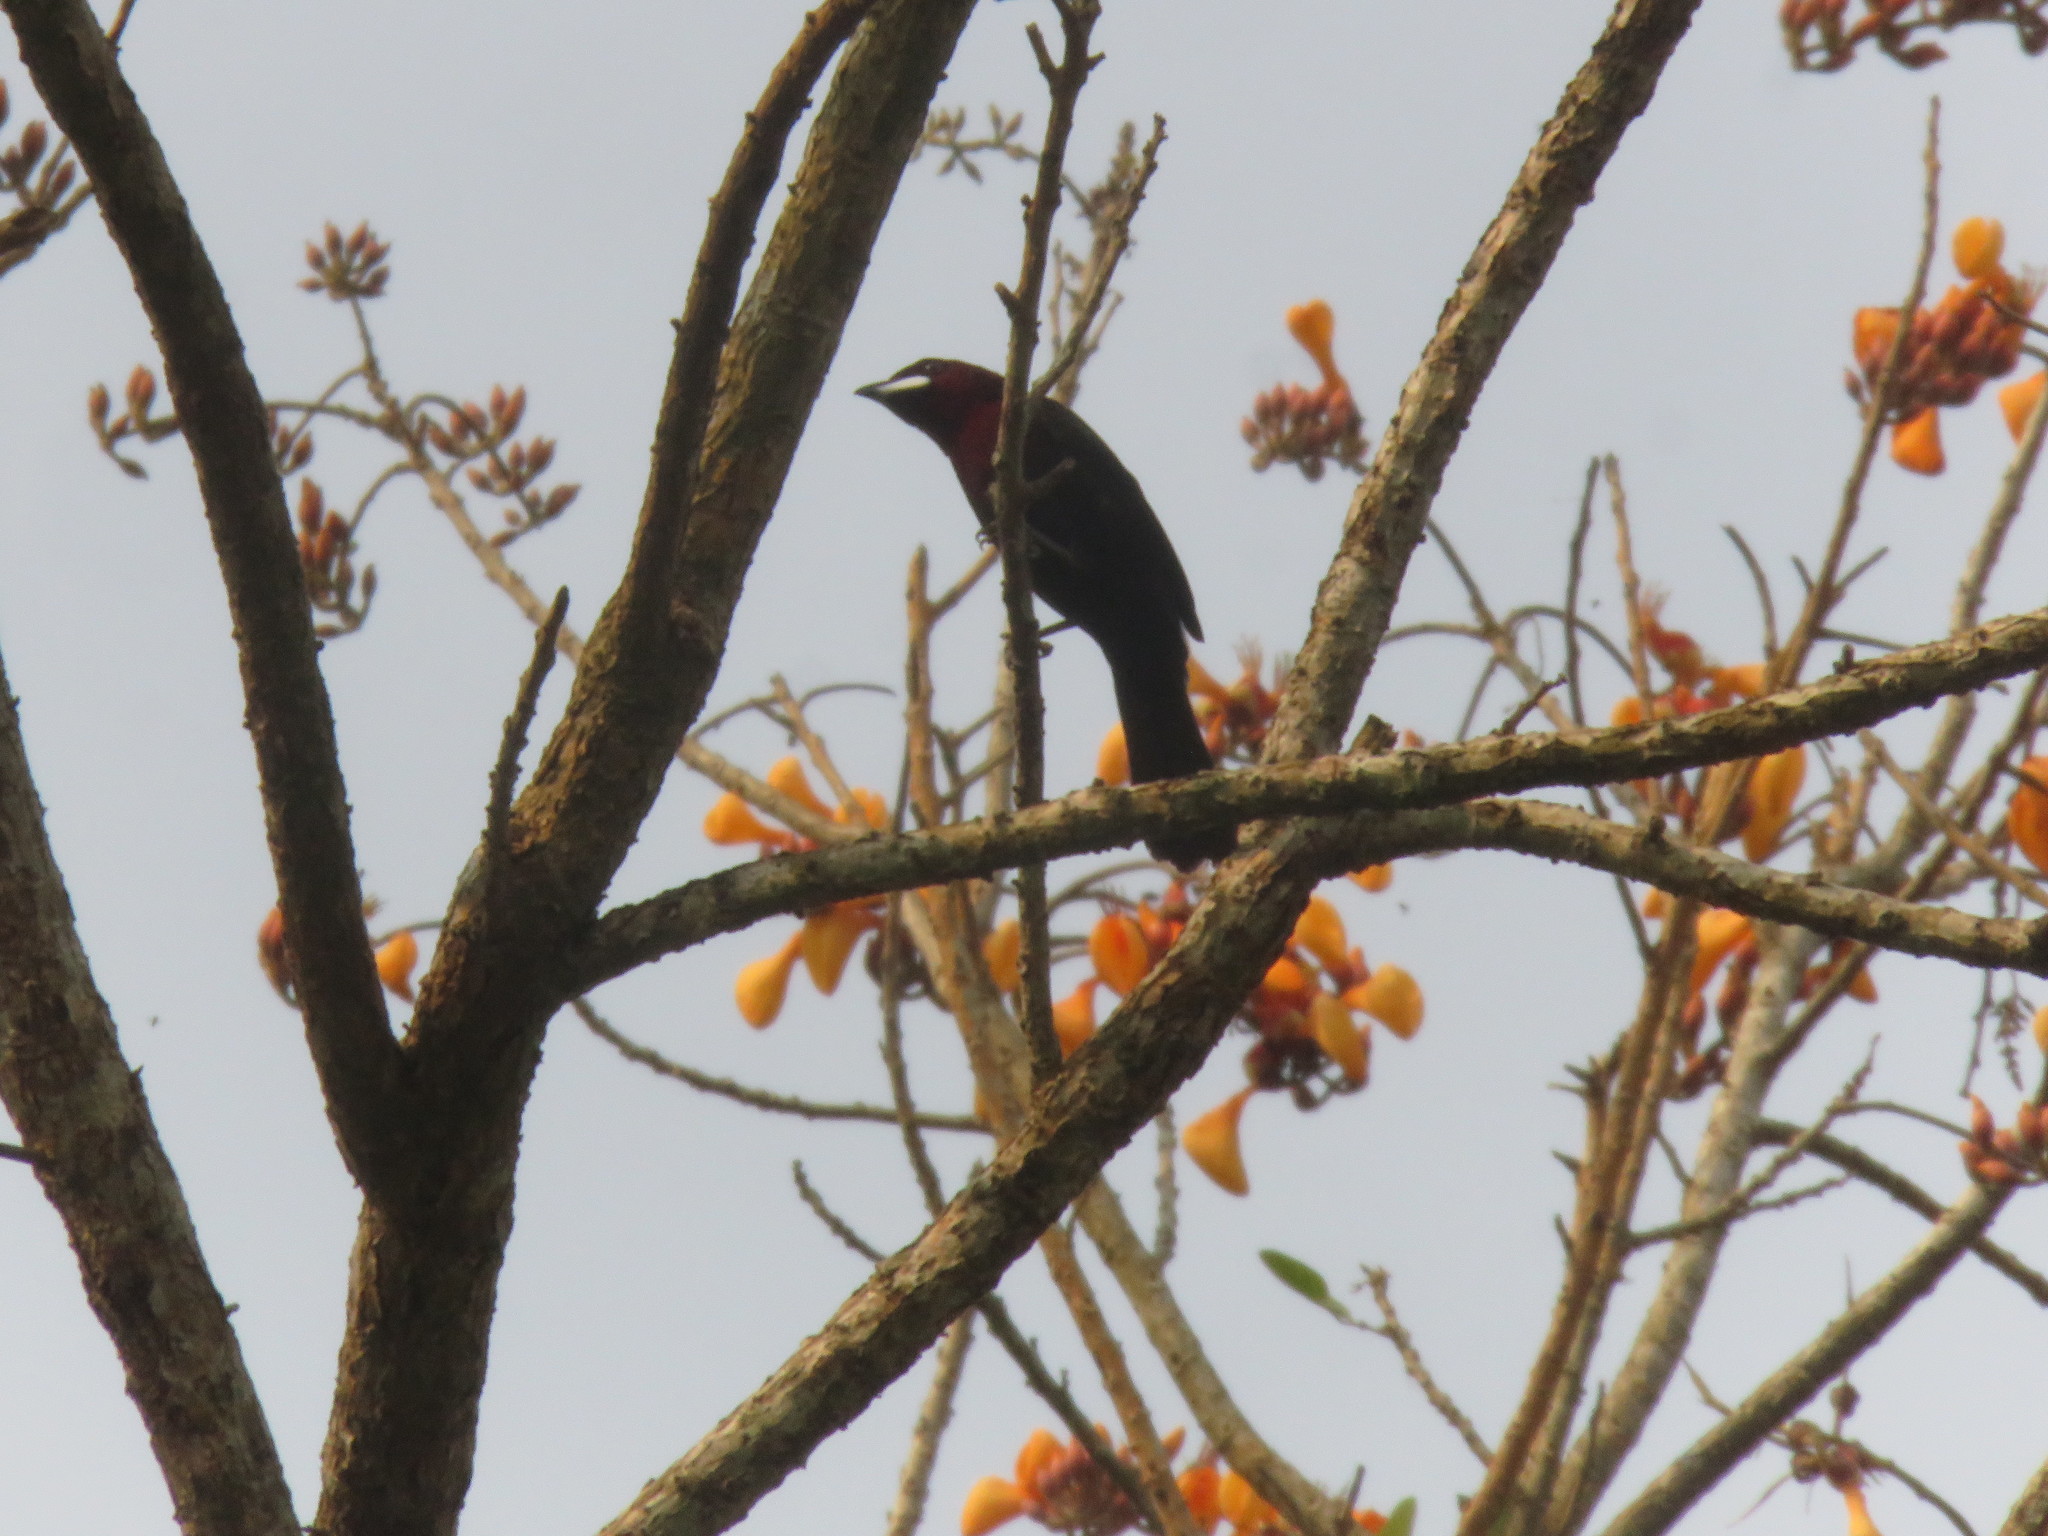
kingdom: Animalia
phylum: Chordata
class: Aves
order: Passeriformes
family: Thraupidae
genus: Ramphocelus
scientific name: Ramphocelus carbo
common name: Silver-beaked tanager
